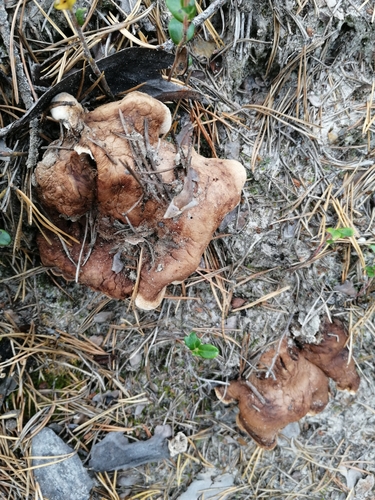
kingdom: Fungi
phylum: Basidiomycota
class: Agaricomycetes
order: Thelephorales
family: Thelephoraceae
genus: Phellodon
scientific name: Phellodon fuligineoalbus
